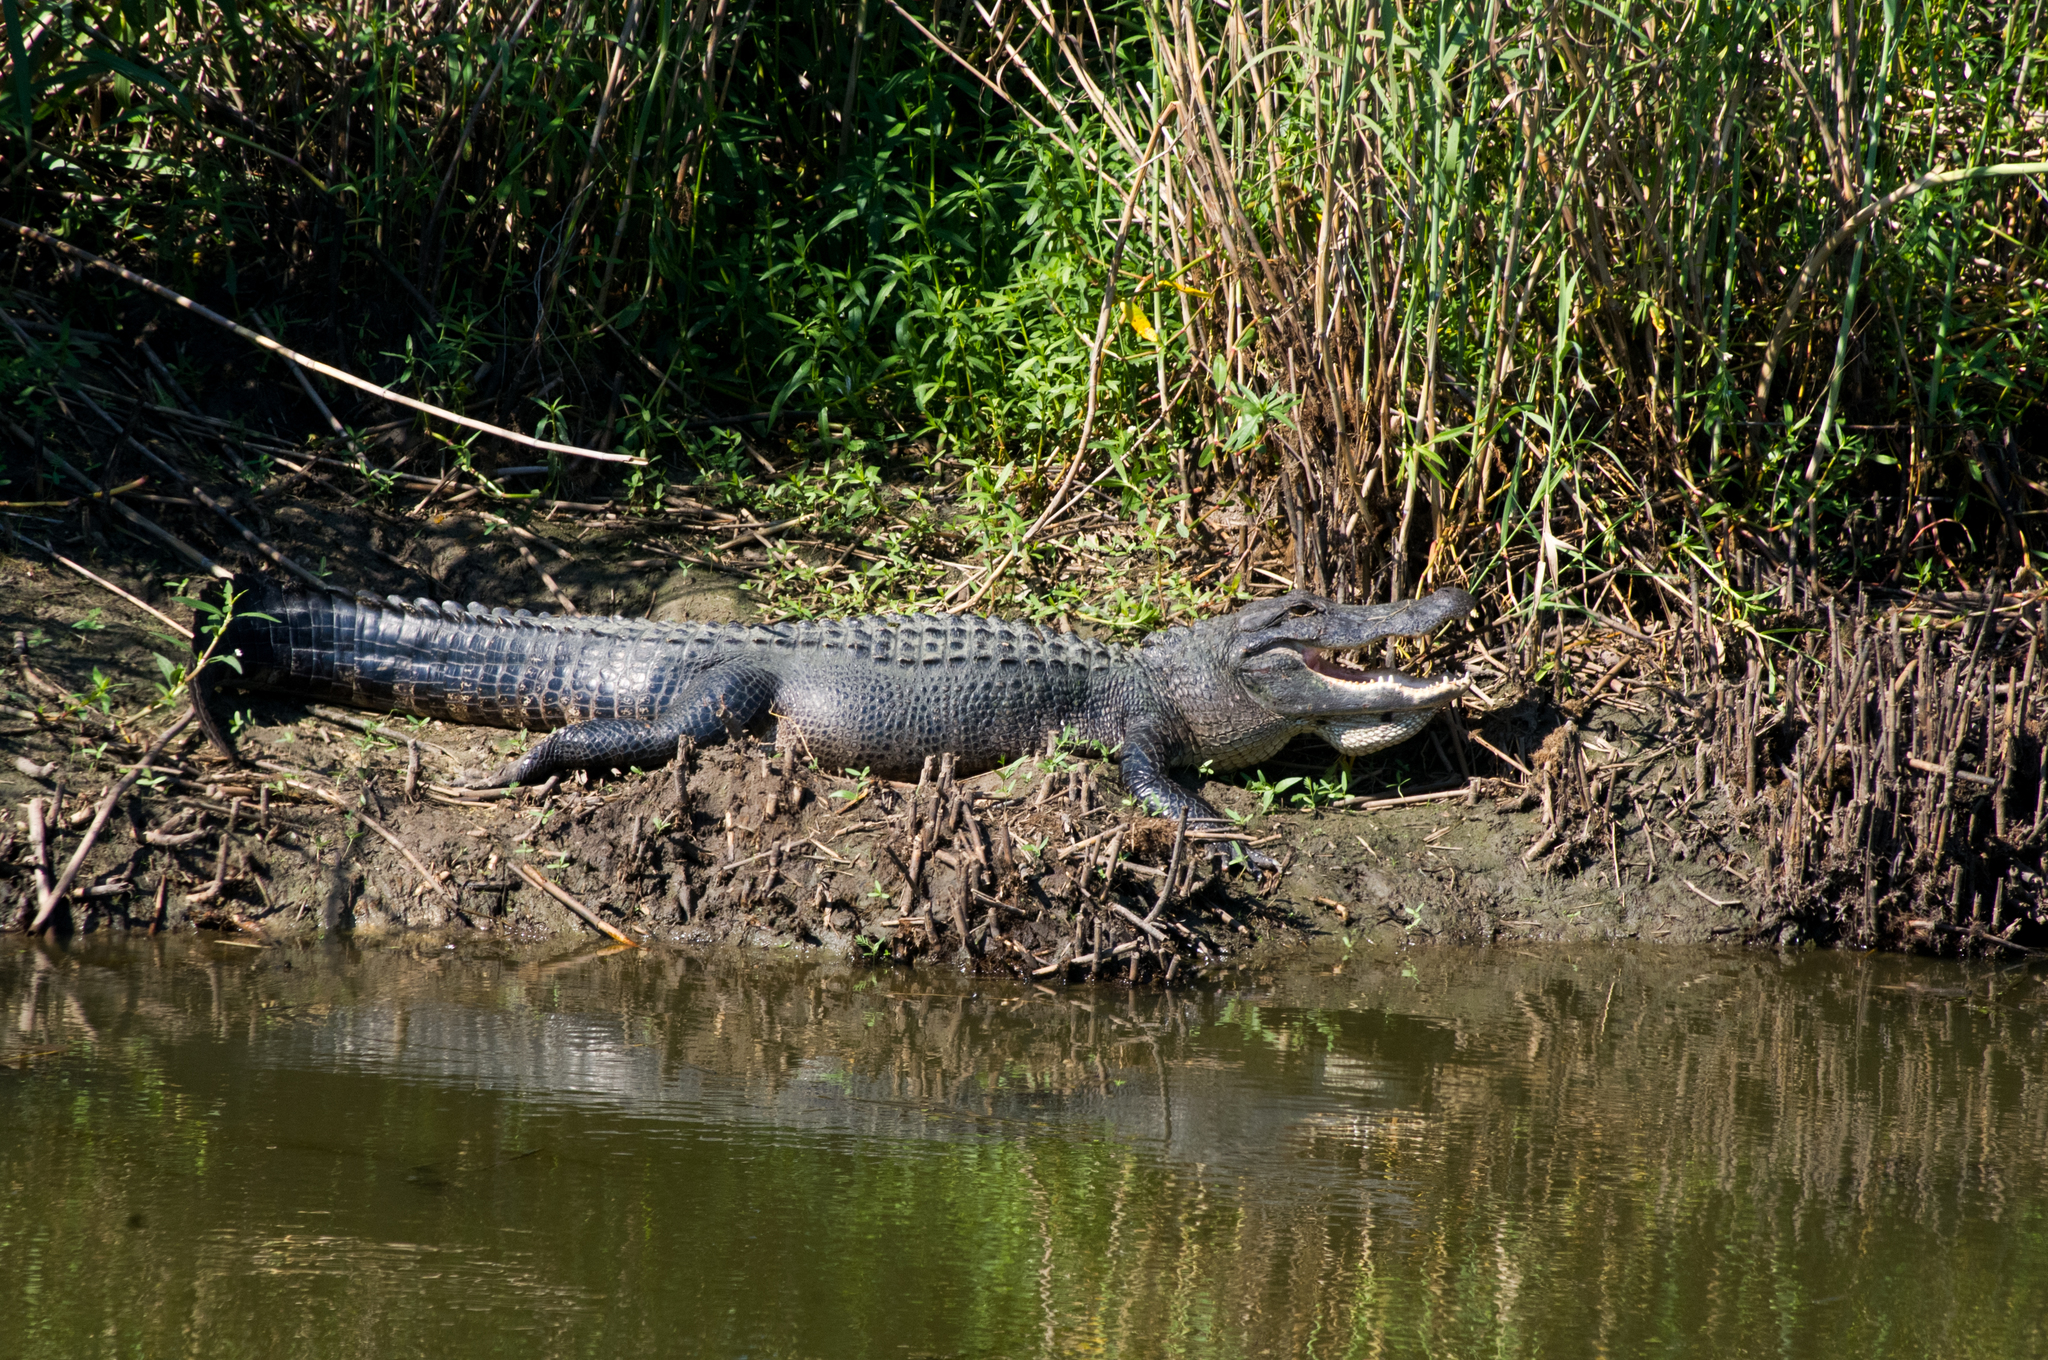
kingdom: Animalia
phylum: Chordata
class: Crocodylia
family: Alligatoridae
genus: Alligator
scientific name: Alligator mississippiensis
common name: American alligator
